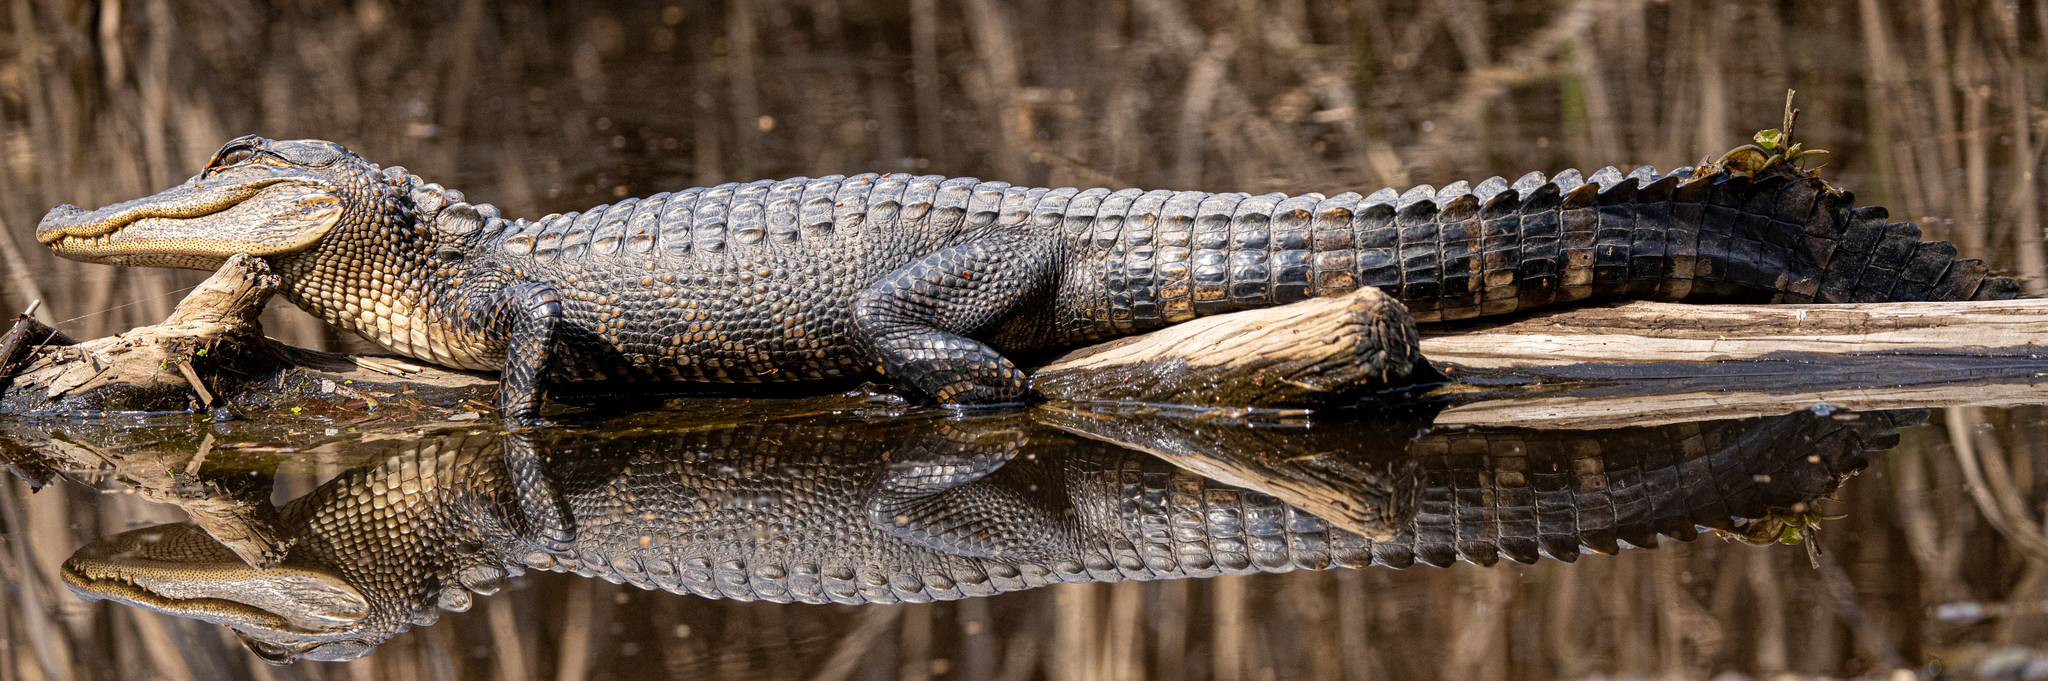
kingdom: Animalia
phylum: Chordata
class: Crocodylia
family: Alligatoridae
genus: Alligator
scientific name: Alligator mississippiensis
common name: American alligator
